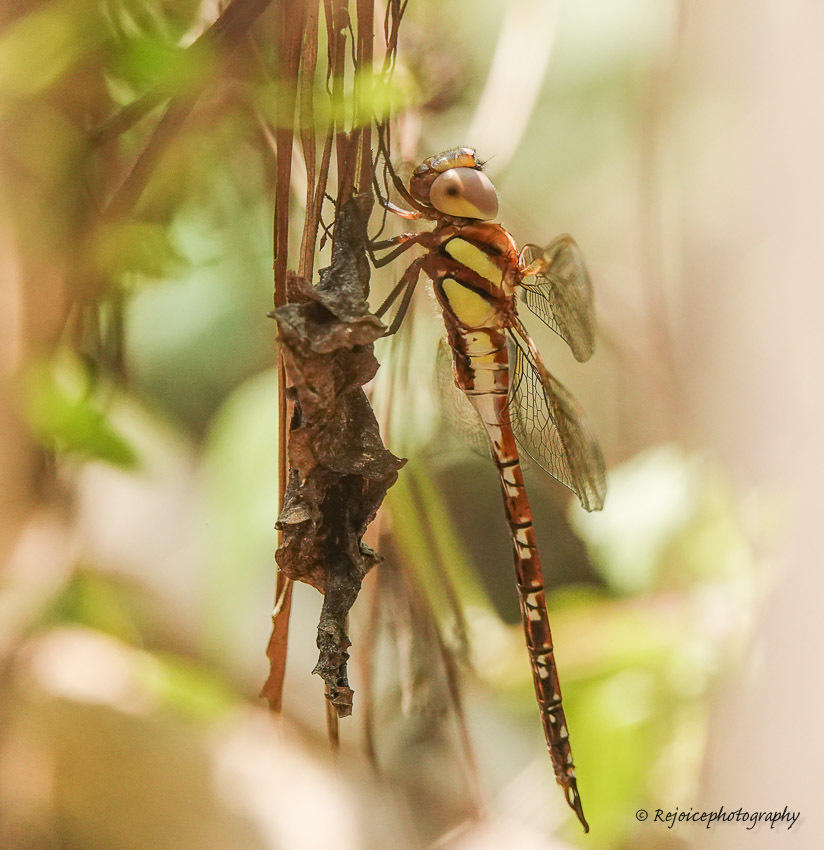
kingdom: Animalia
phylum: Arthropoda
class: Insecta
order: Odonata
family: Aeshnidae
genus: Anaciaeschna
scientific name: Anaciaeschna jaspidea
